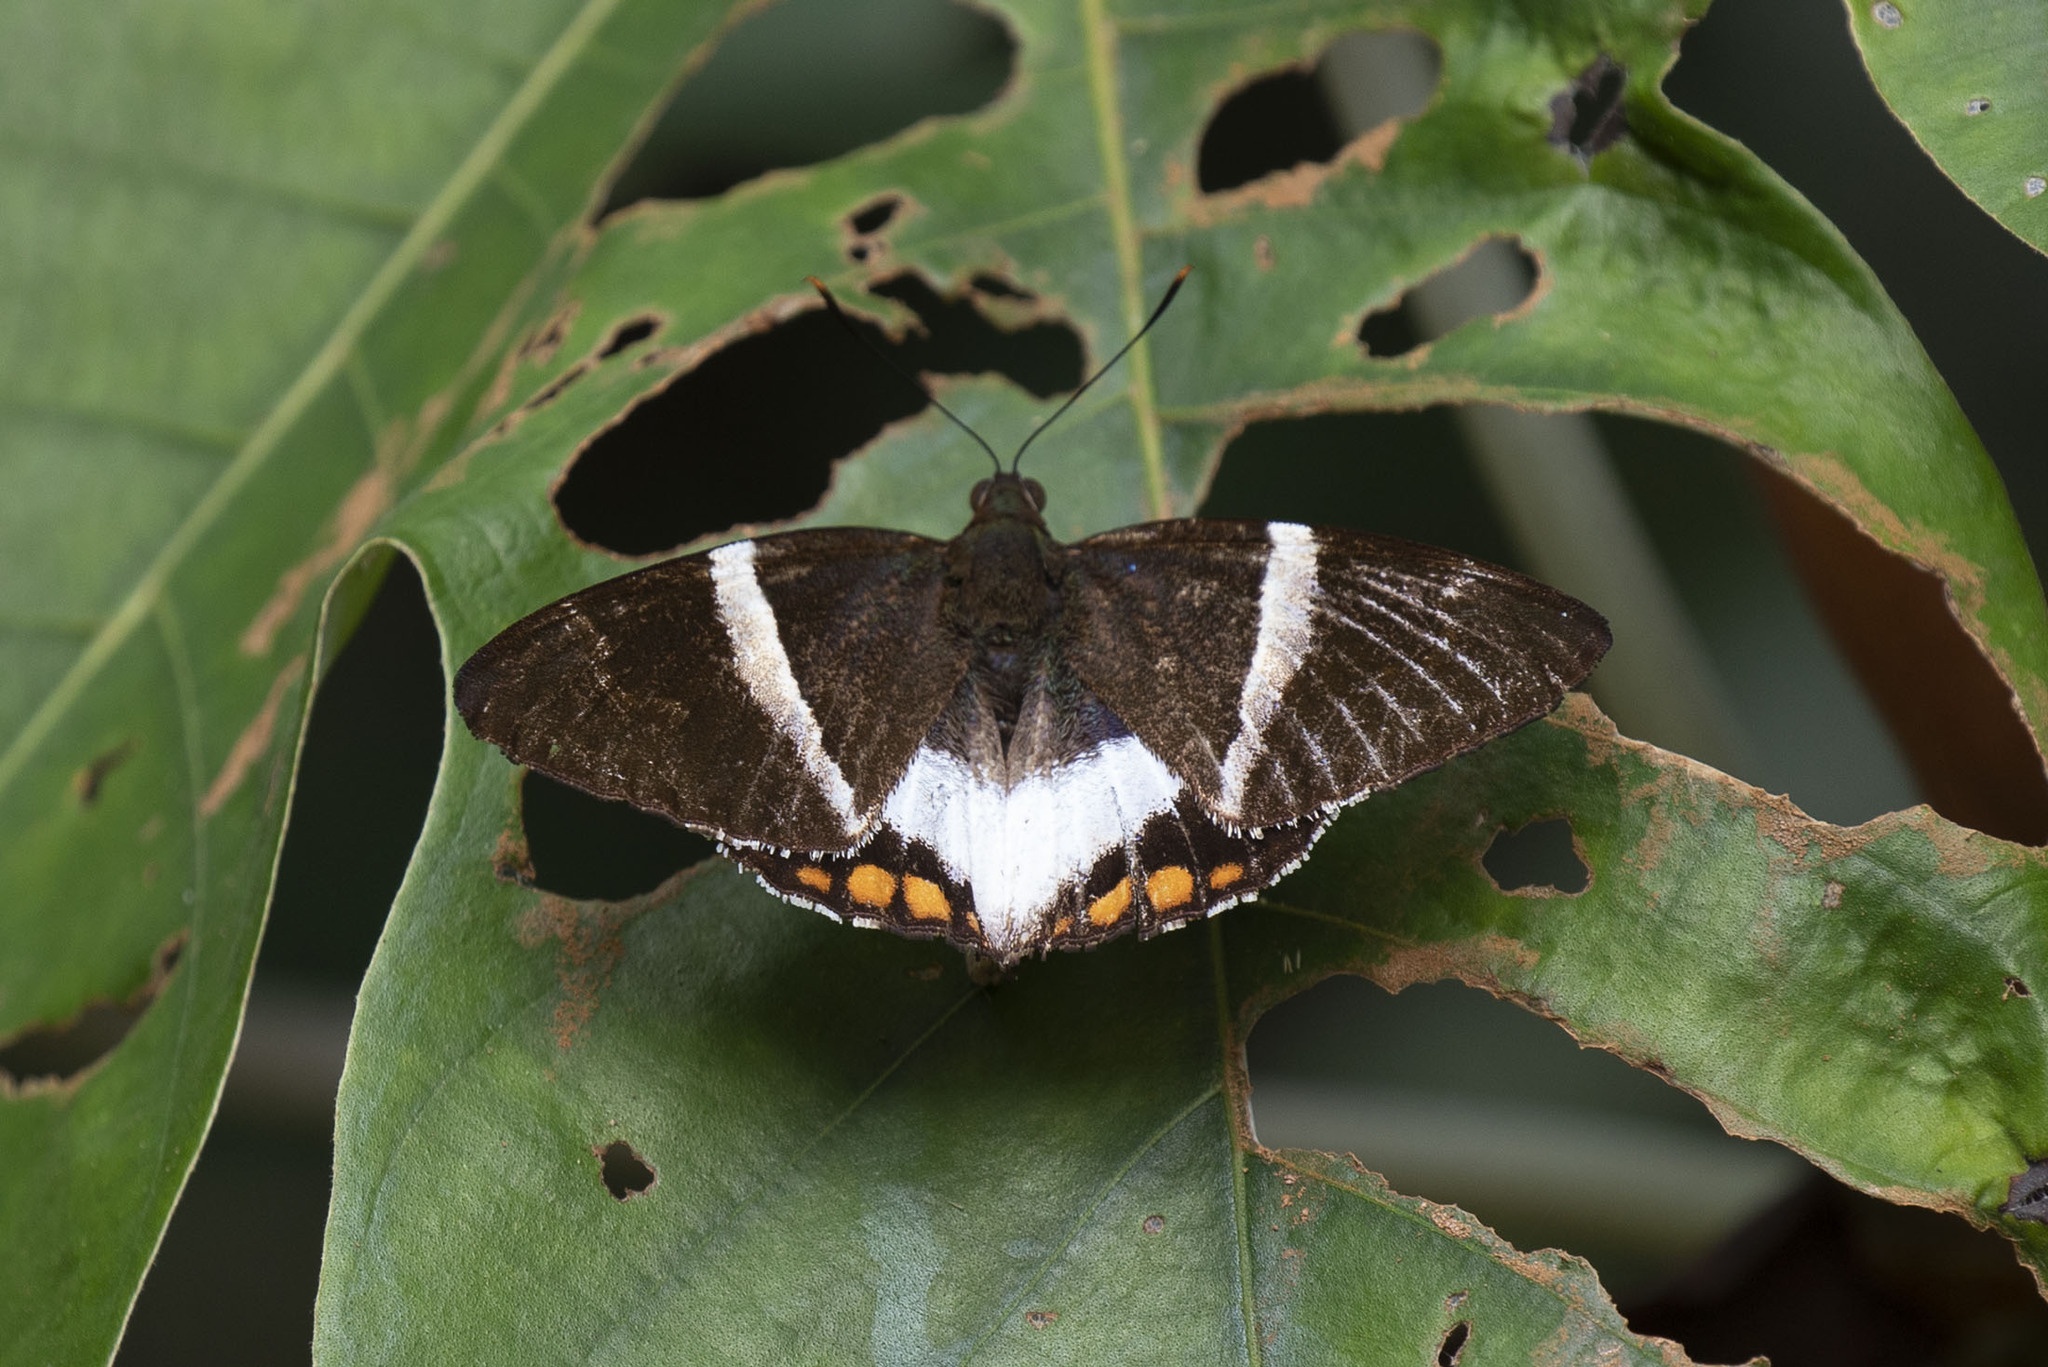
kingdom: Animalia
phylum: Arthropoda
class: Insecta
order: Lepidoptera
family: Castniidae
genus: Castnia
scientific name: Castnia licus
